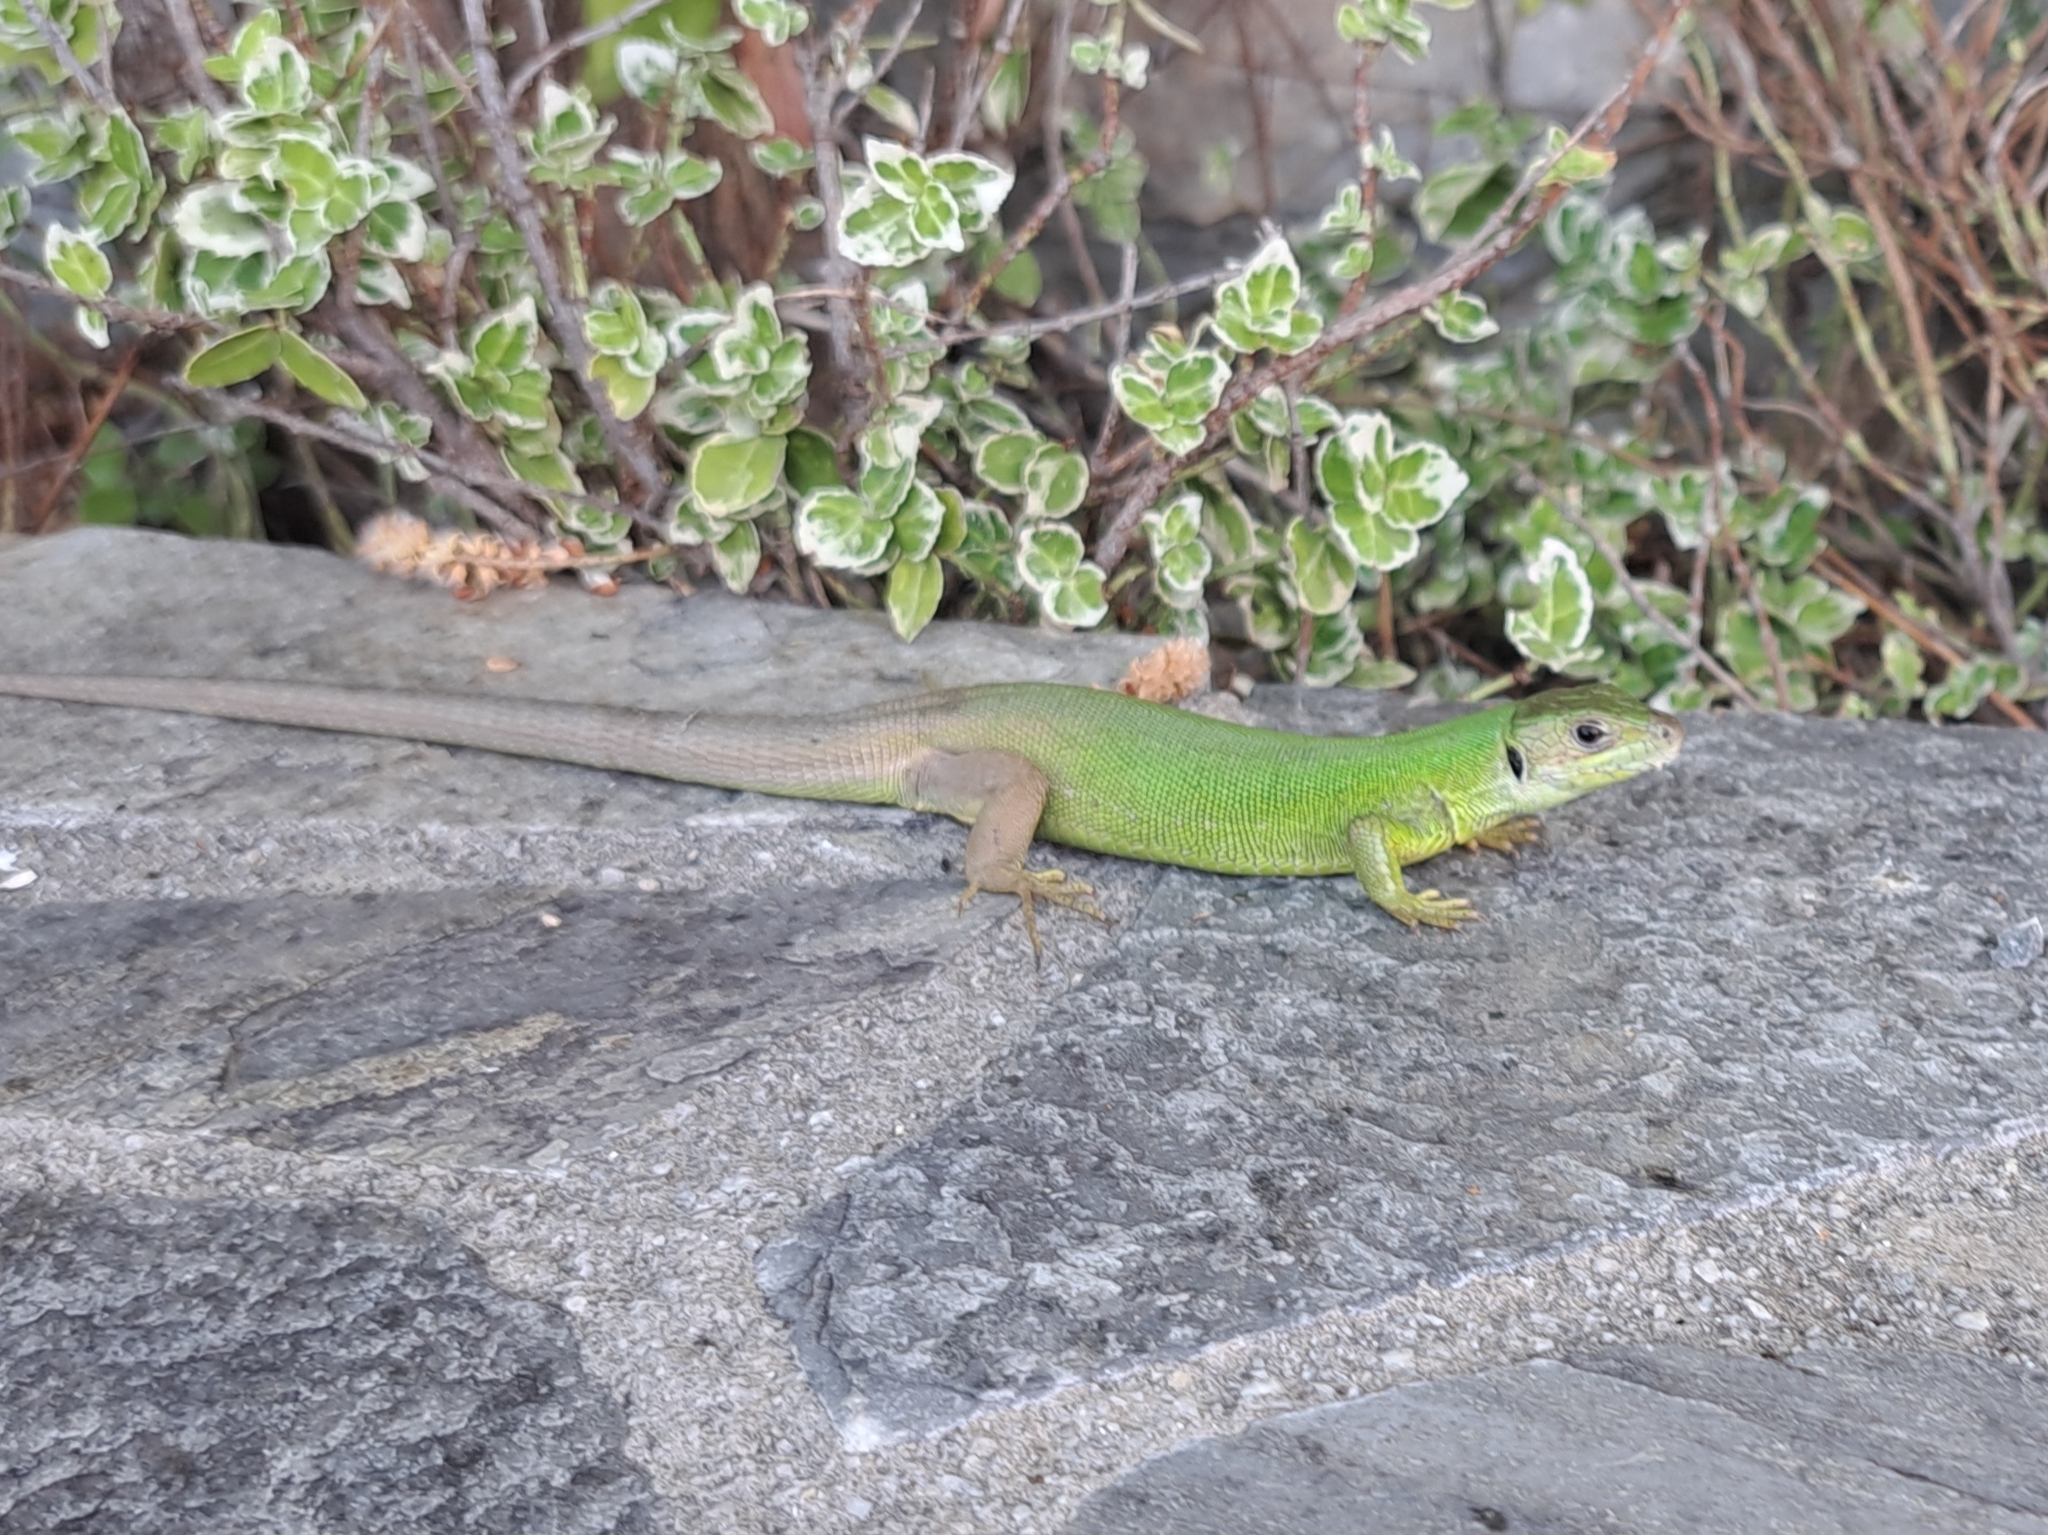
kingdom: Animalia
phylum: Chordata
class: Squamata
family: Lacertidae
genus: Lacerta
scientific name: Lacerta viridis
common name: European green lizard
